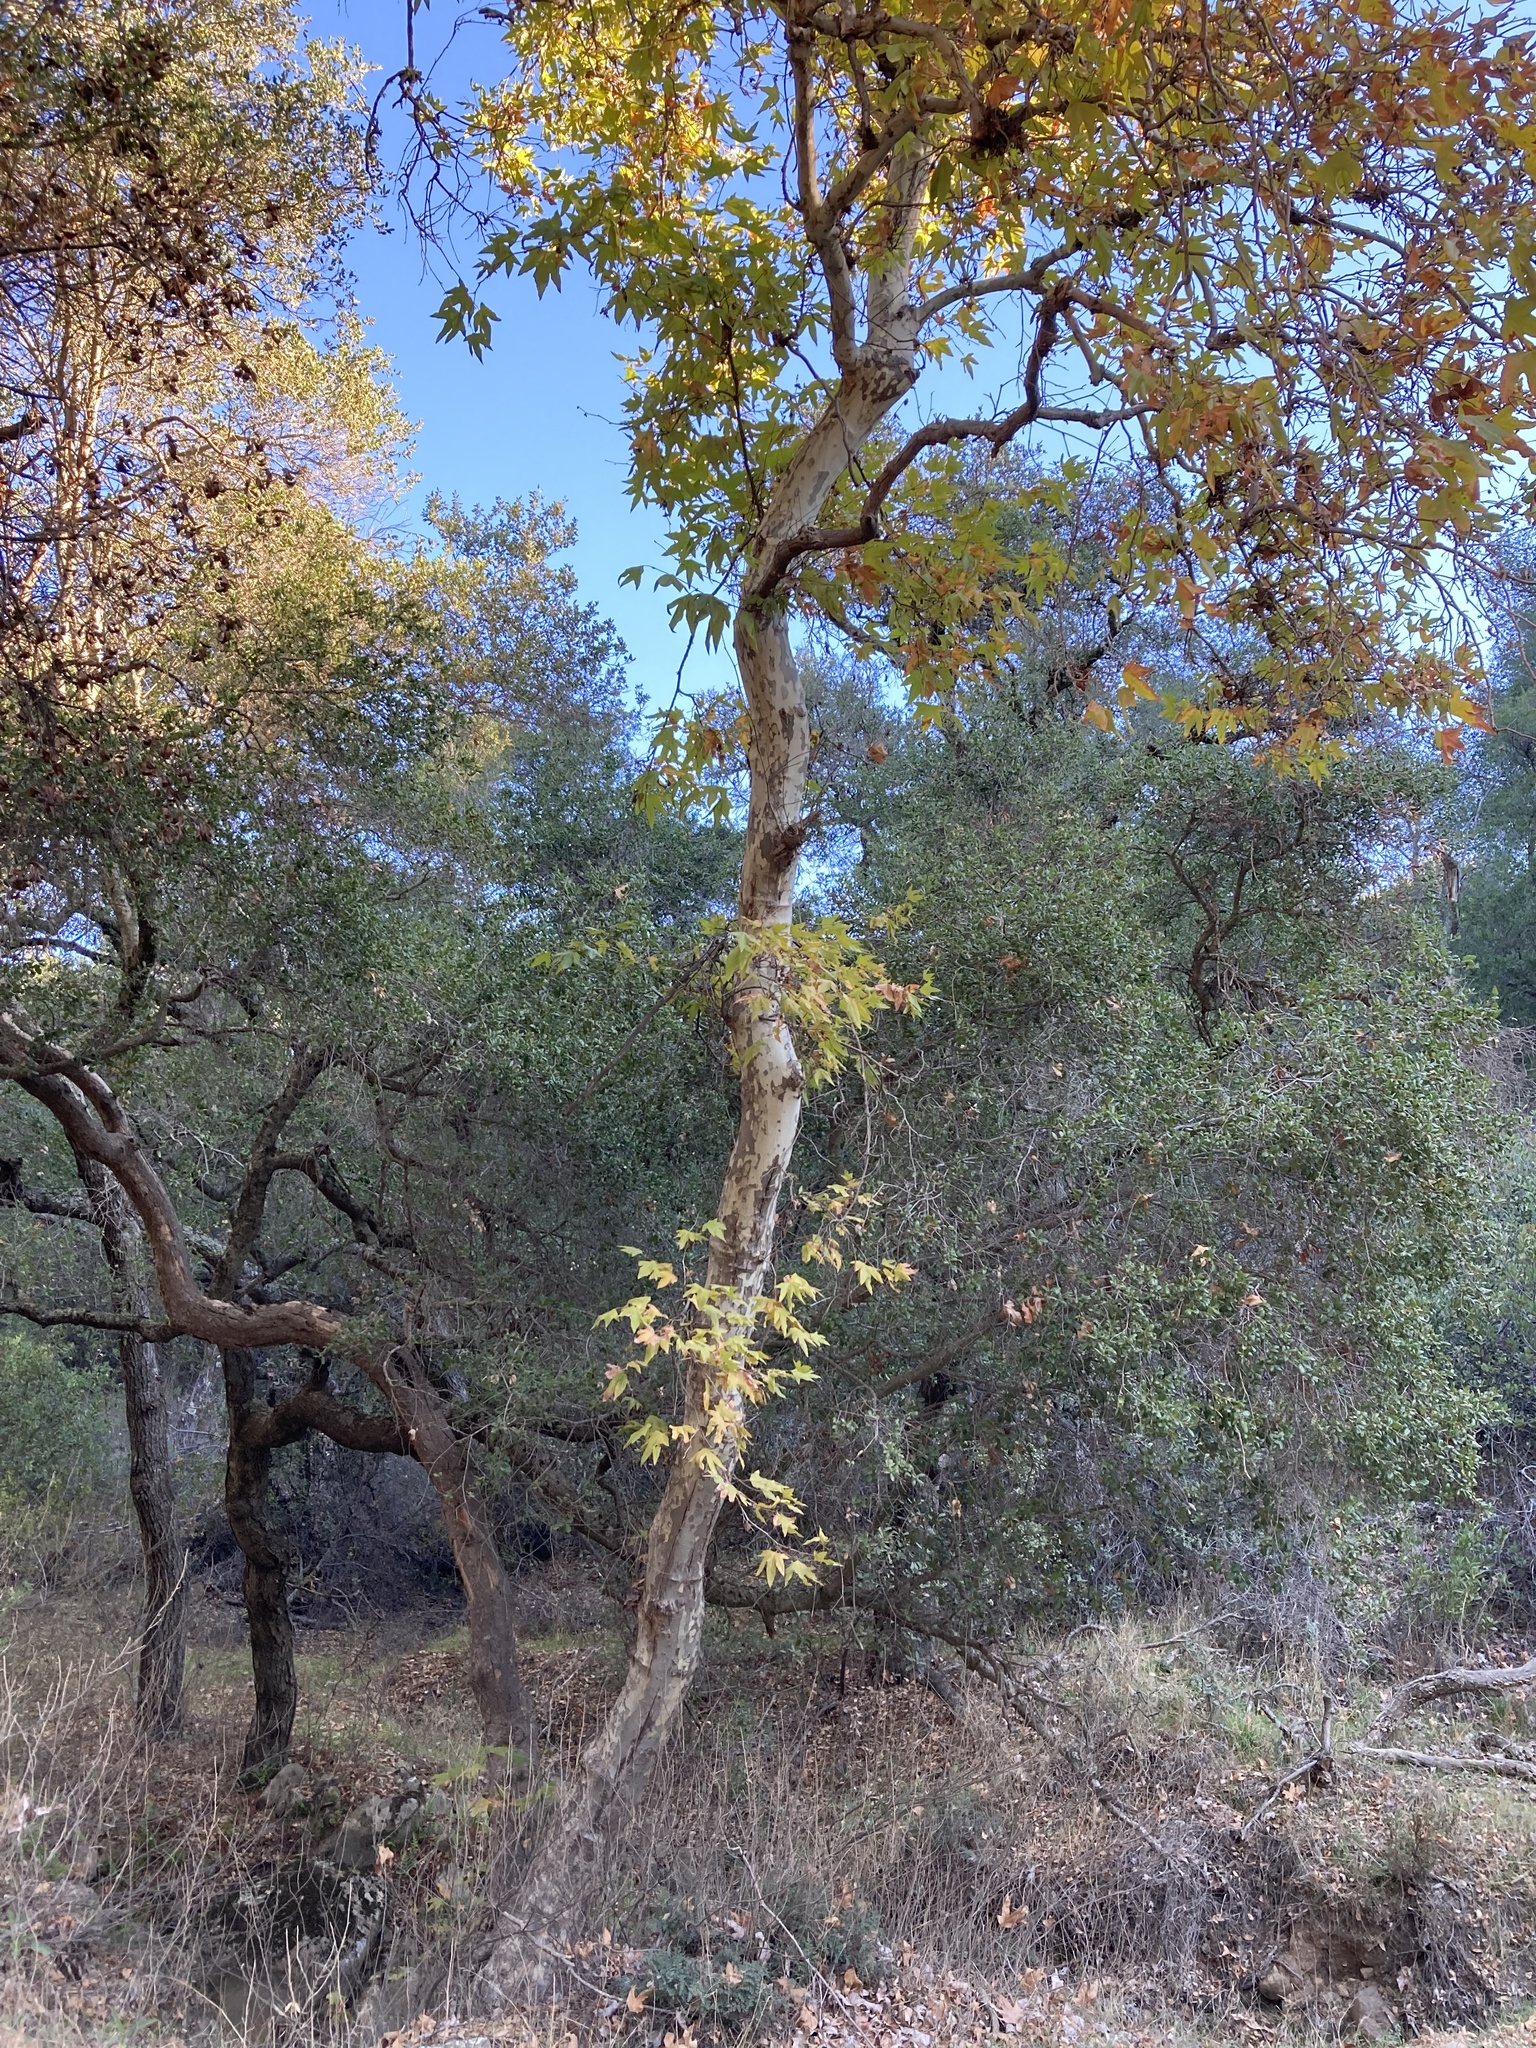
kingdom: Plantae
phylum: Tracheophyta
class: Magnoliopsida
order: Proteales
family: Platanaceae
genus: Platanus
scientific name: Platanus racemosa
